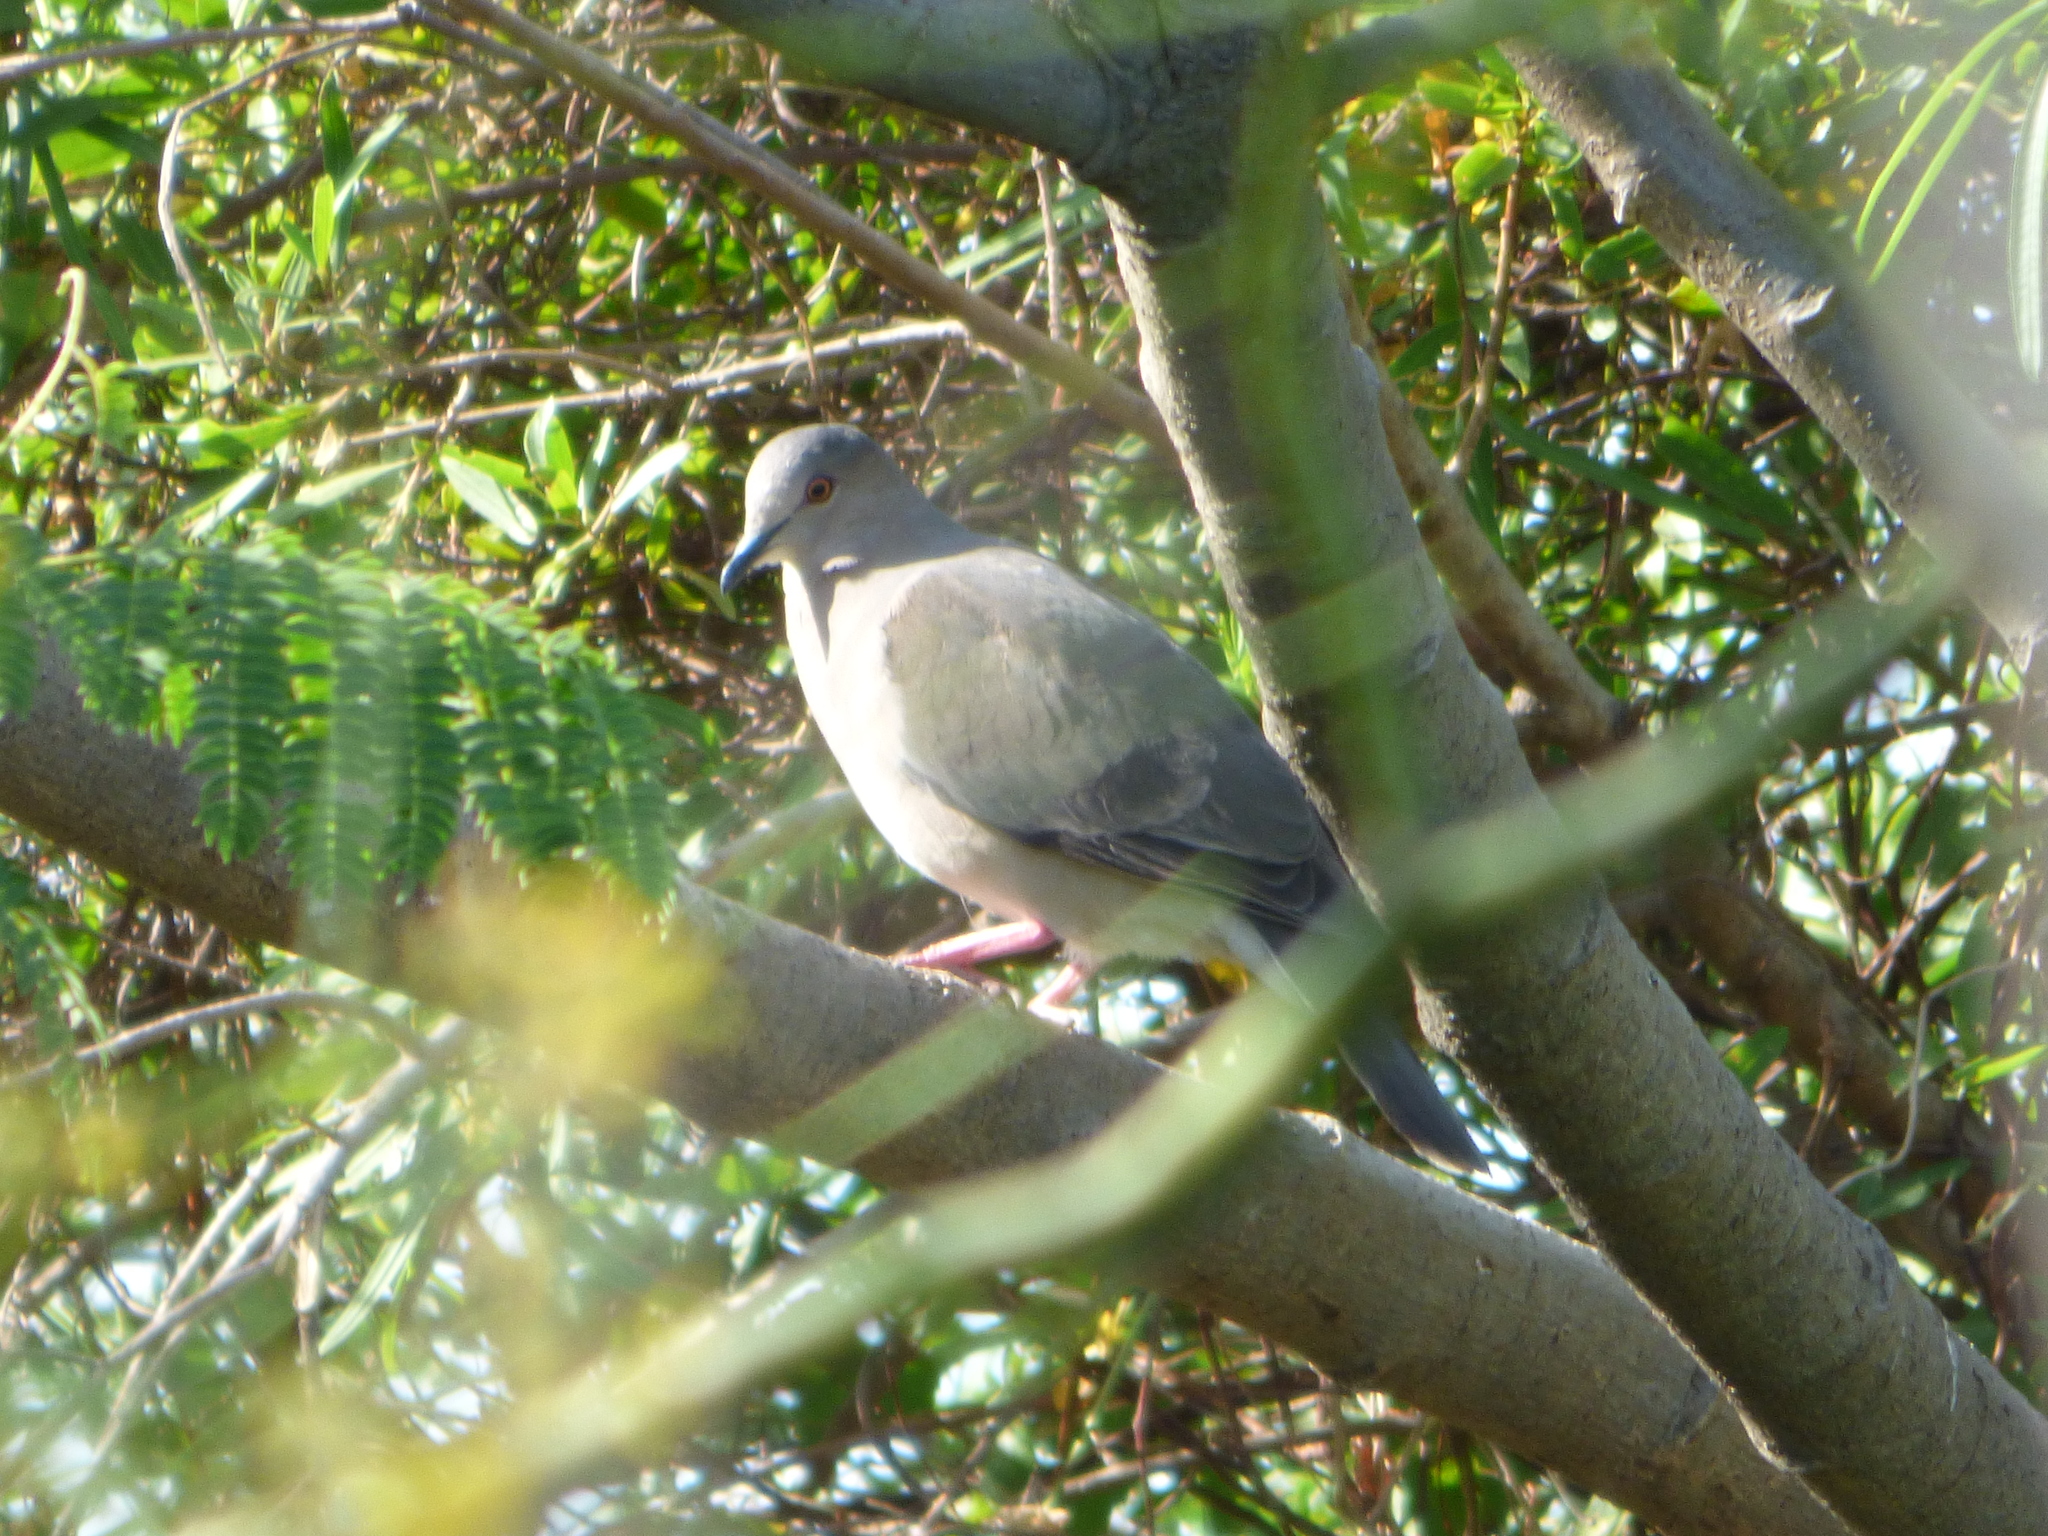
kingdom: Animalia
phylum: Chordata
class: Aves
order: Columbiformes
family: Columbidae
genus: Leptotila
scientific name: Leptotila verreauxi
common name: White-tipped dove
